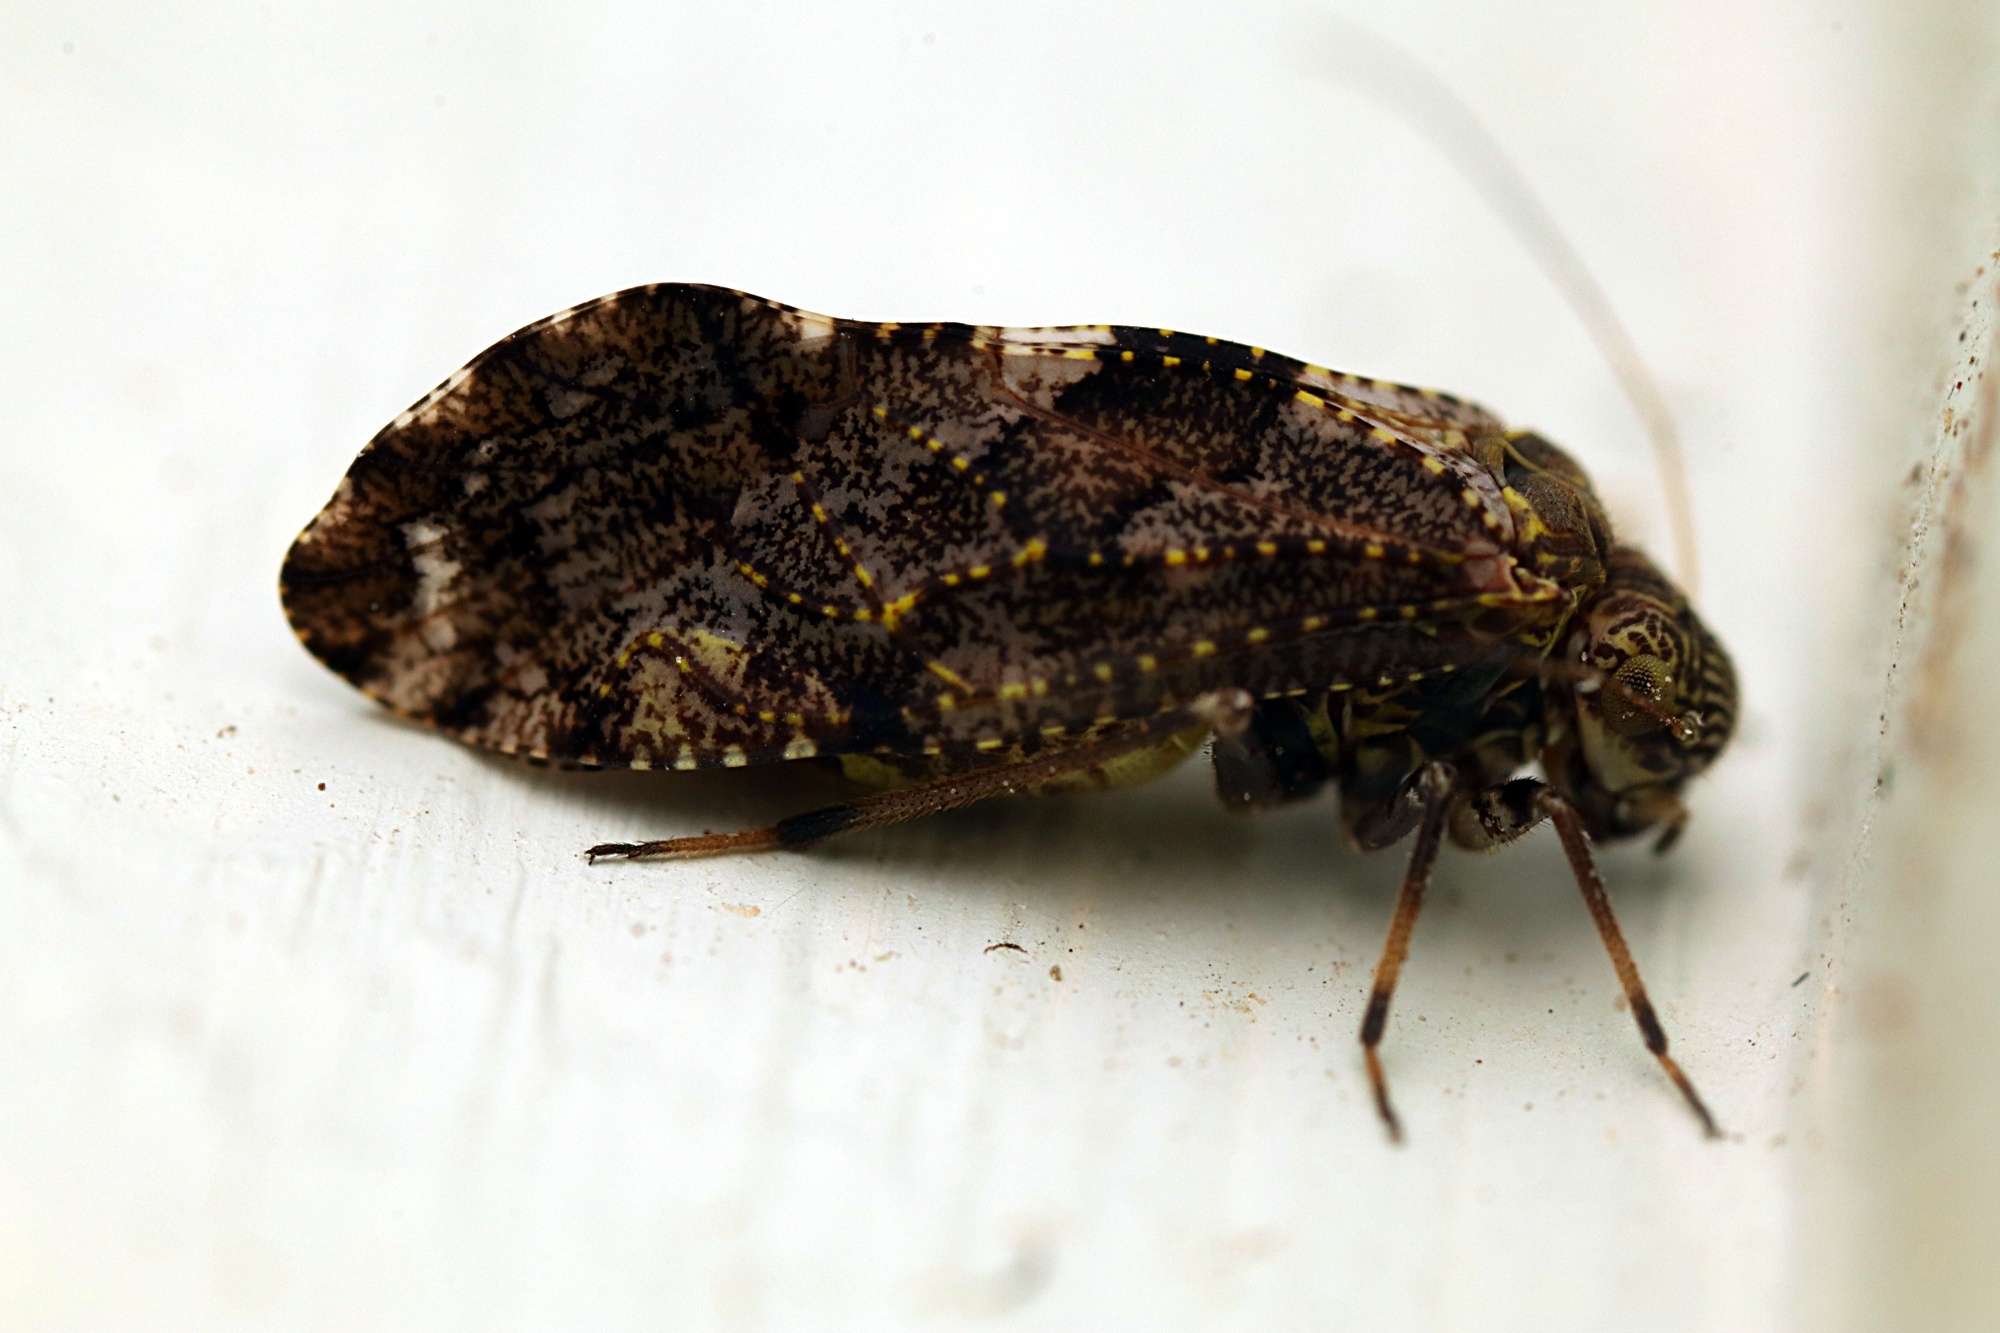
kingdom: Animalia
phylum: Arthropoda
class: Insecta
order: Psocodea
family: Myopsocidae
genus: Nimbopsocus
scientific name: Nimbopsocus australis
